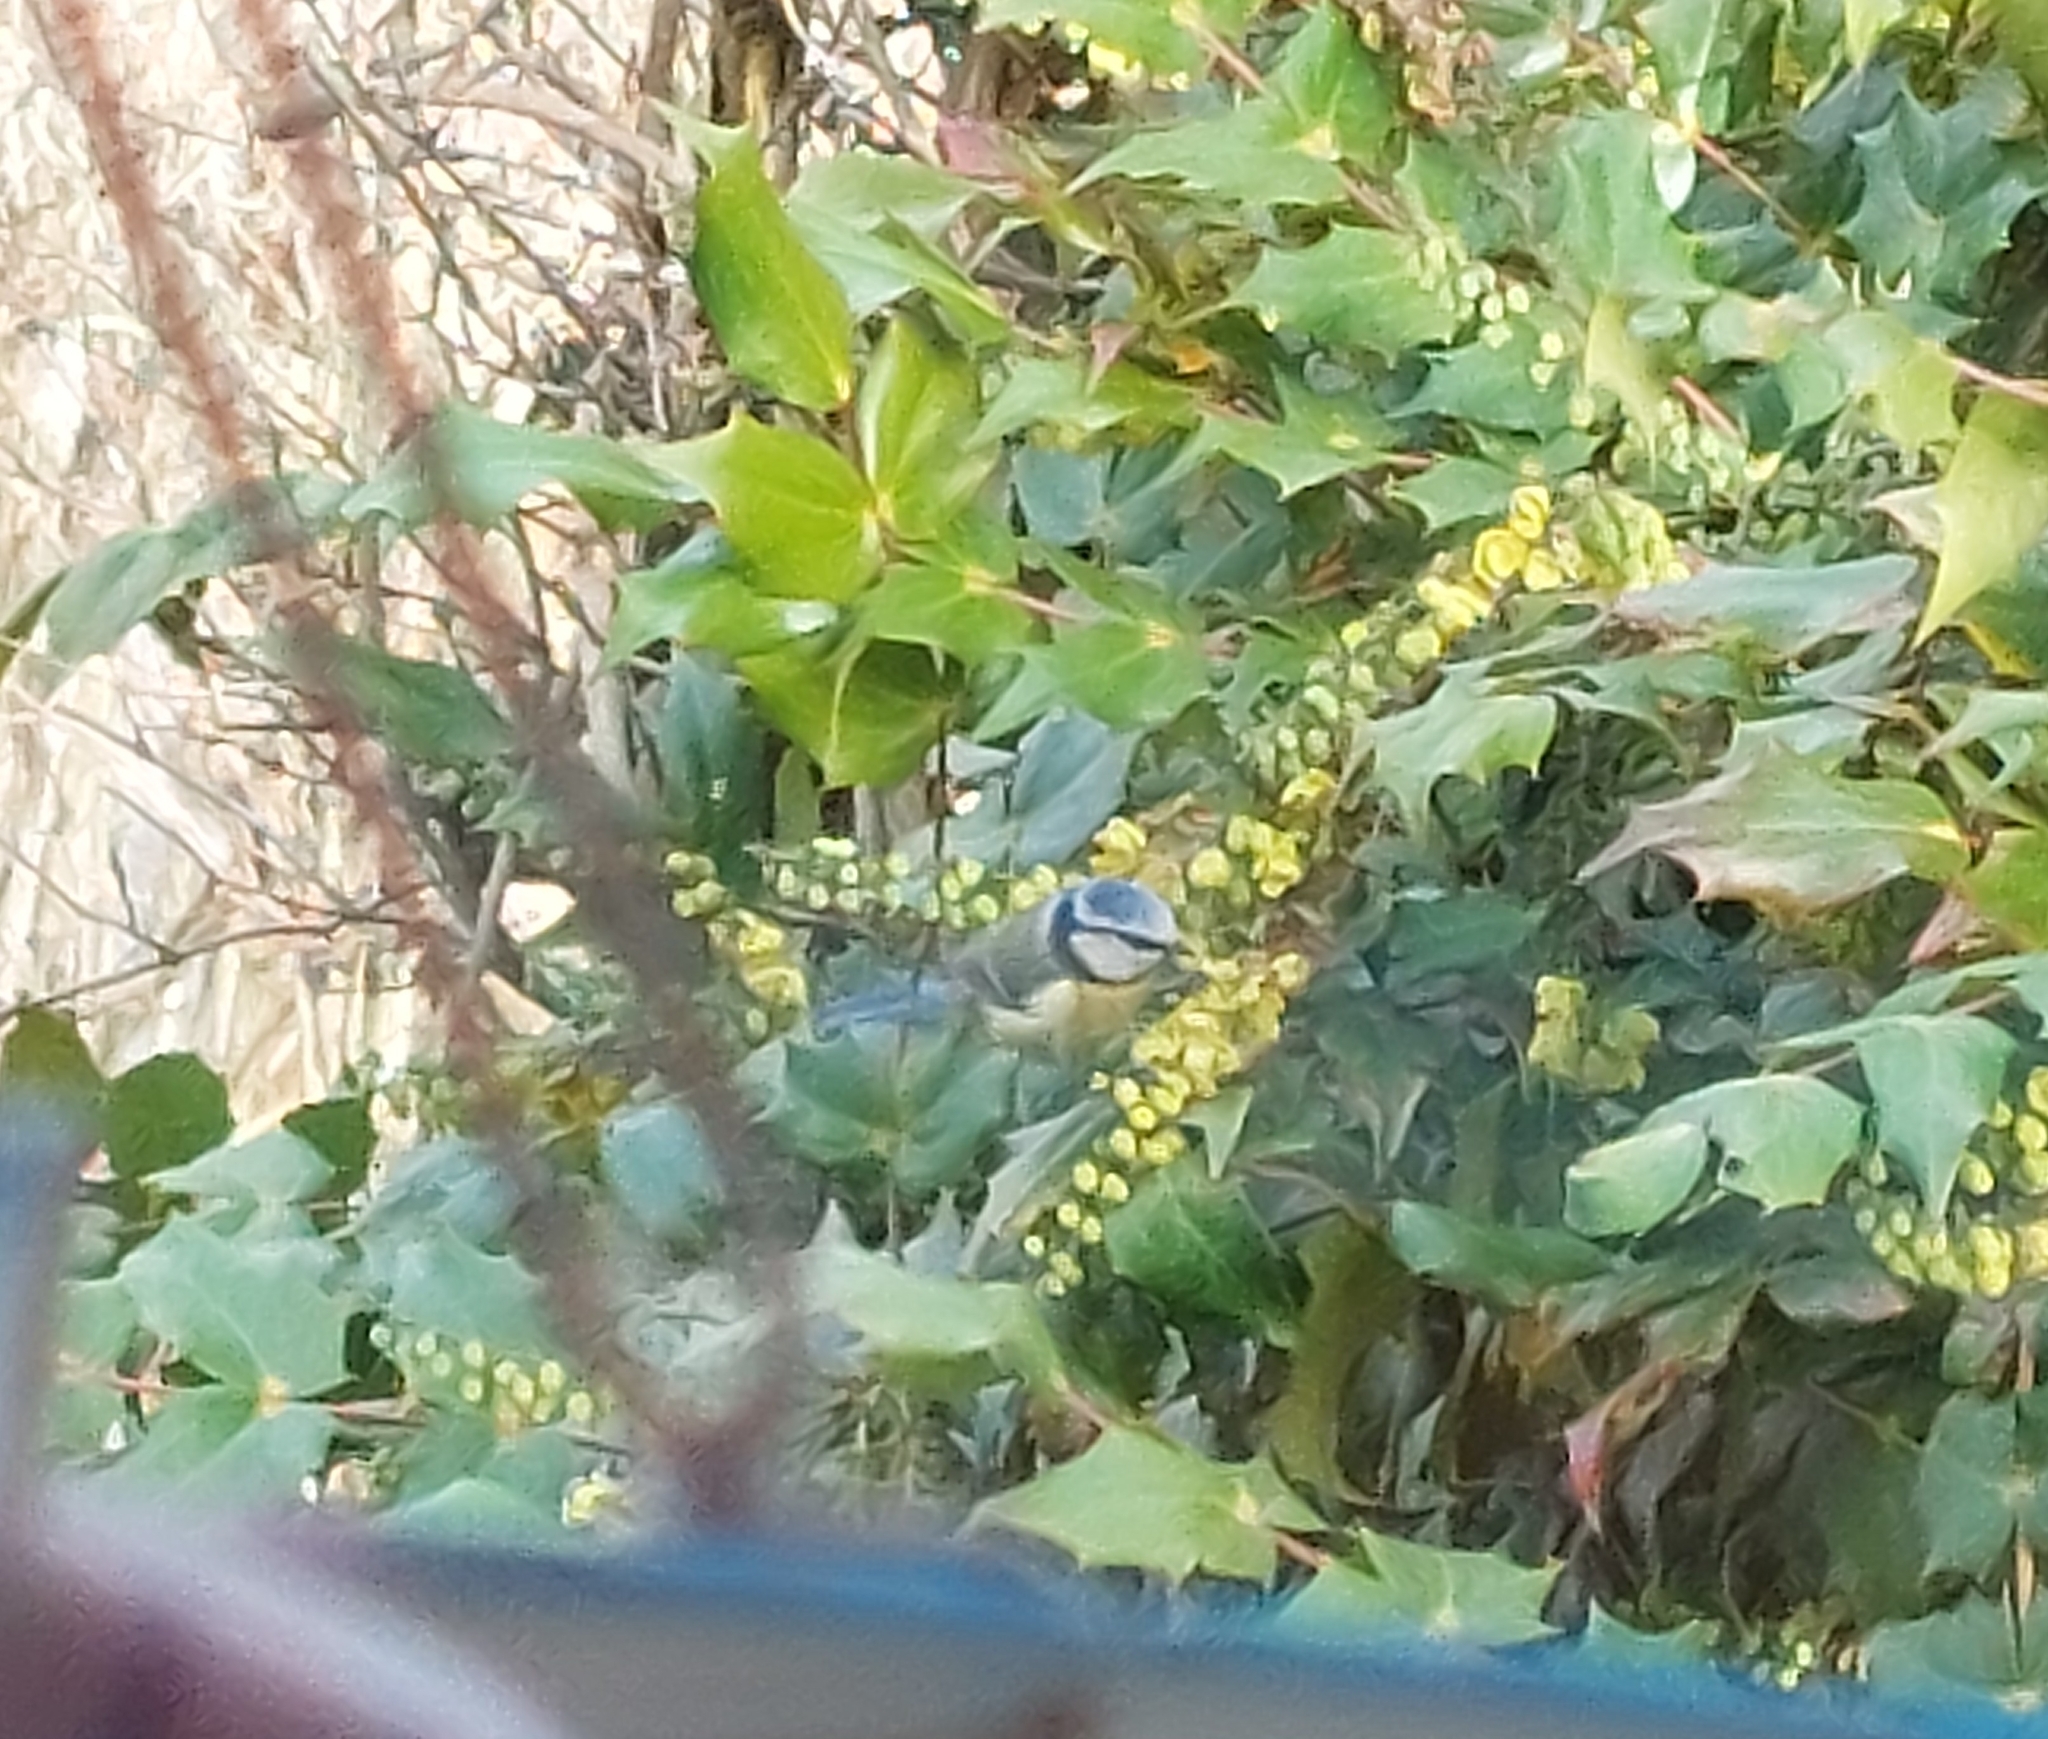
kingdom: Animalia
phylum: Chordata
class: Aves
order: Passeriformes
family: Paridae
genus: Cyanistes
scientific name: Cyanistes caeruleus
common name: Eurasian blue tit
